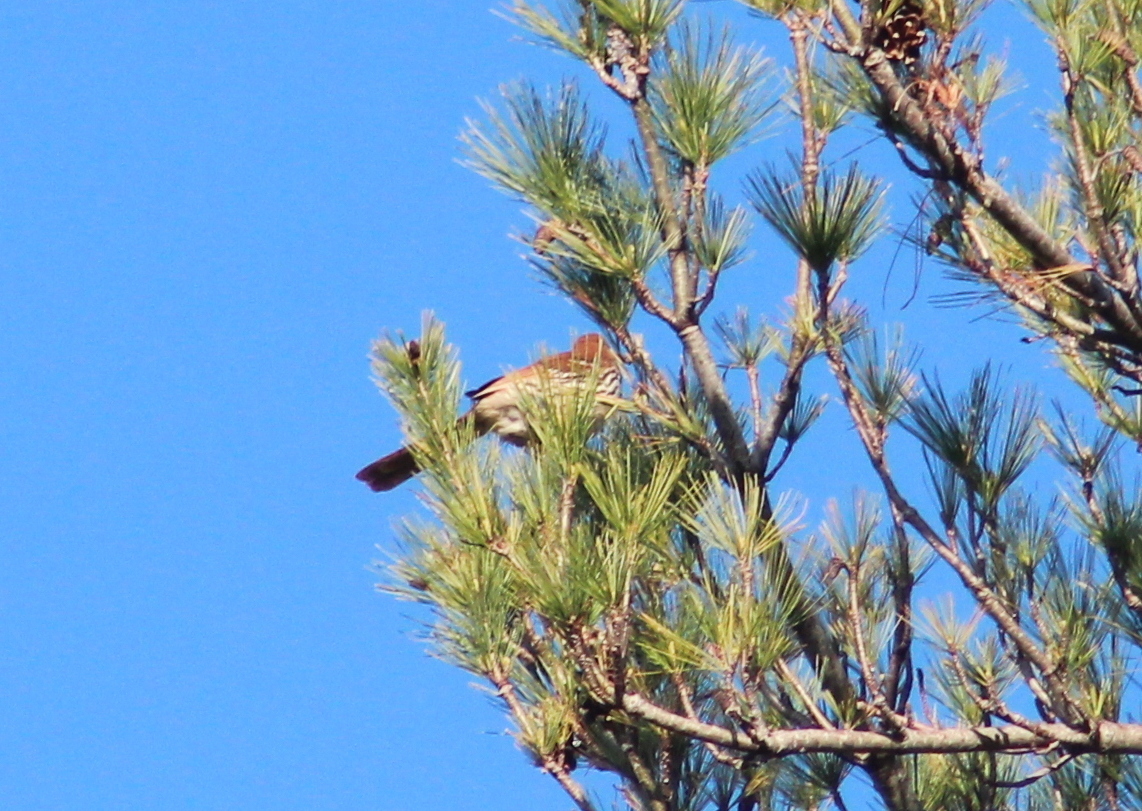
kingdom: Animalia
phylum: Chordata
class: Aves
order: Passeriformes
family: Mimidae
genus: Toxostoma
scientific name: Toxostoma rufum
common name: Brown thrasher
